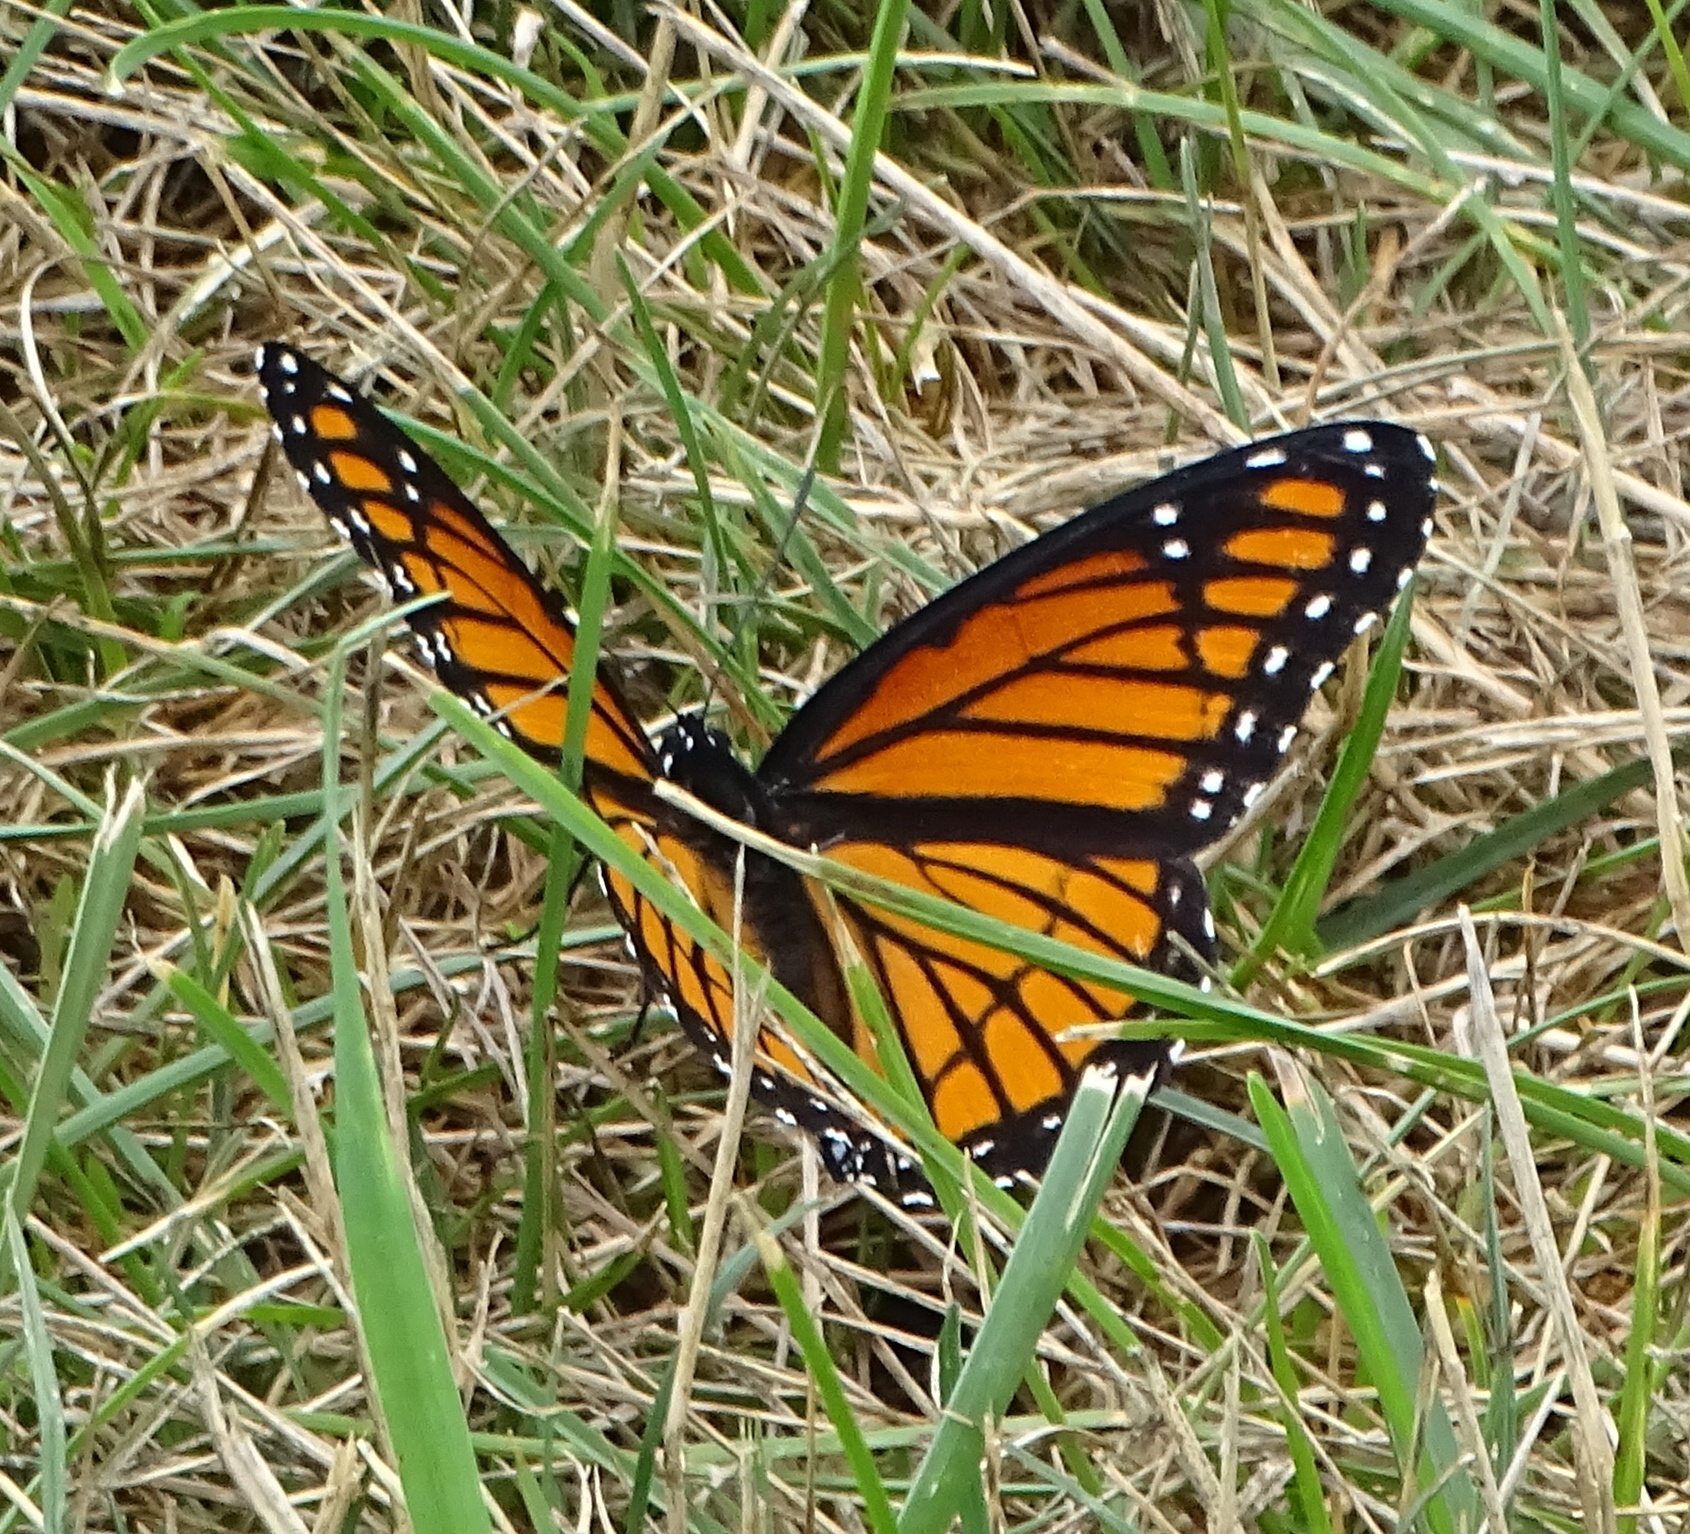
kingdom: Animalia
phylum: Arthropoda
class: Insecta
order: Lepidoptera
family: Nymphalidae
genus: Limenitis
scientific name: Limenitis archippus
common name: Viceroy
